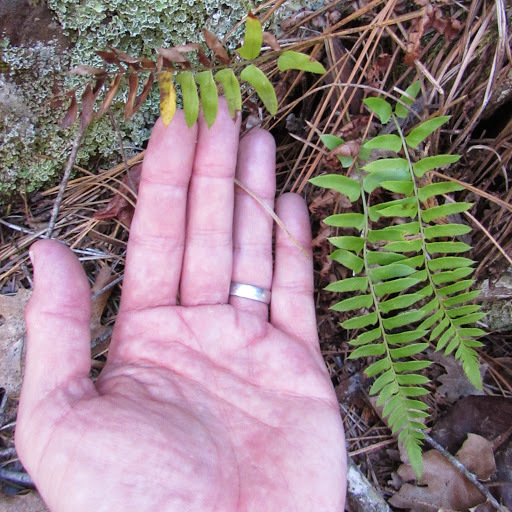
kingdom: Plantae
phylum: Tracheophyta
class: Polypodiopsida
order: Polypodiales
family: Dryopteridaceae
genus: Polystichum
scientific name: Polystichum imbricans
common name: Dwarf western sword fern
